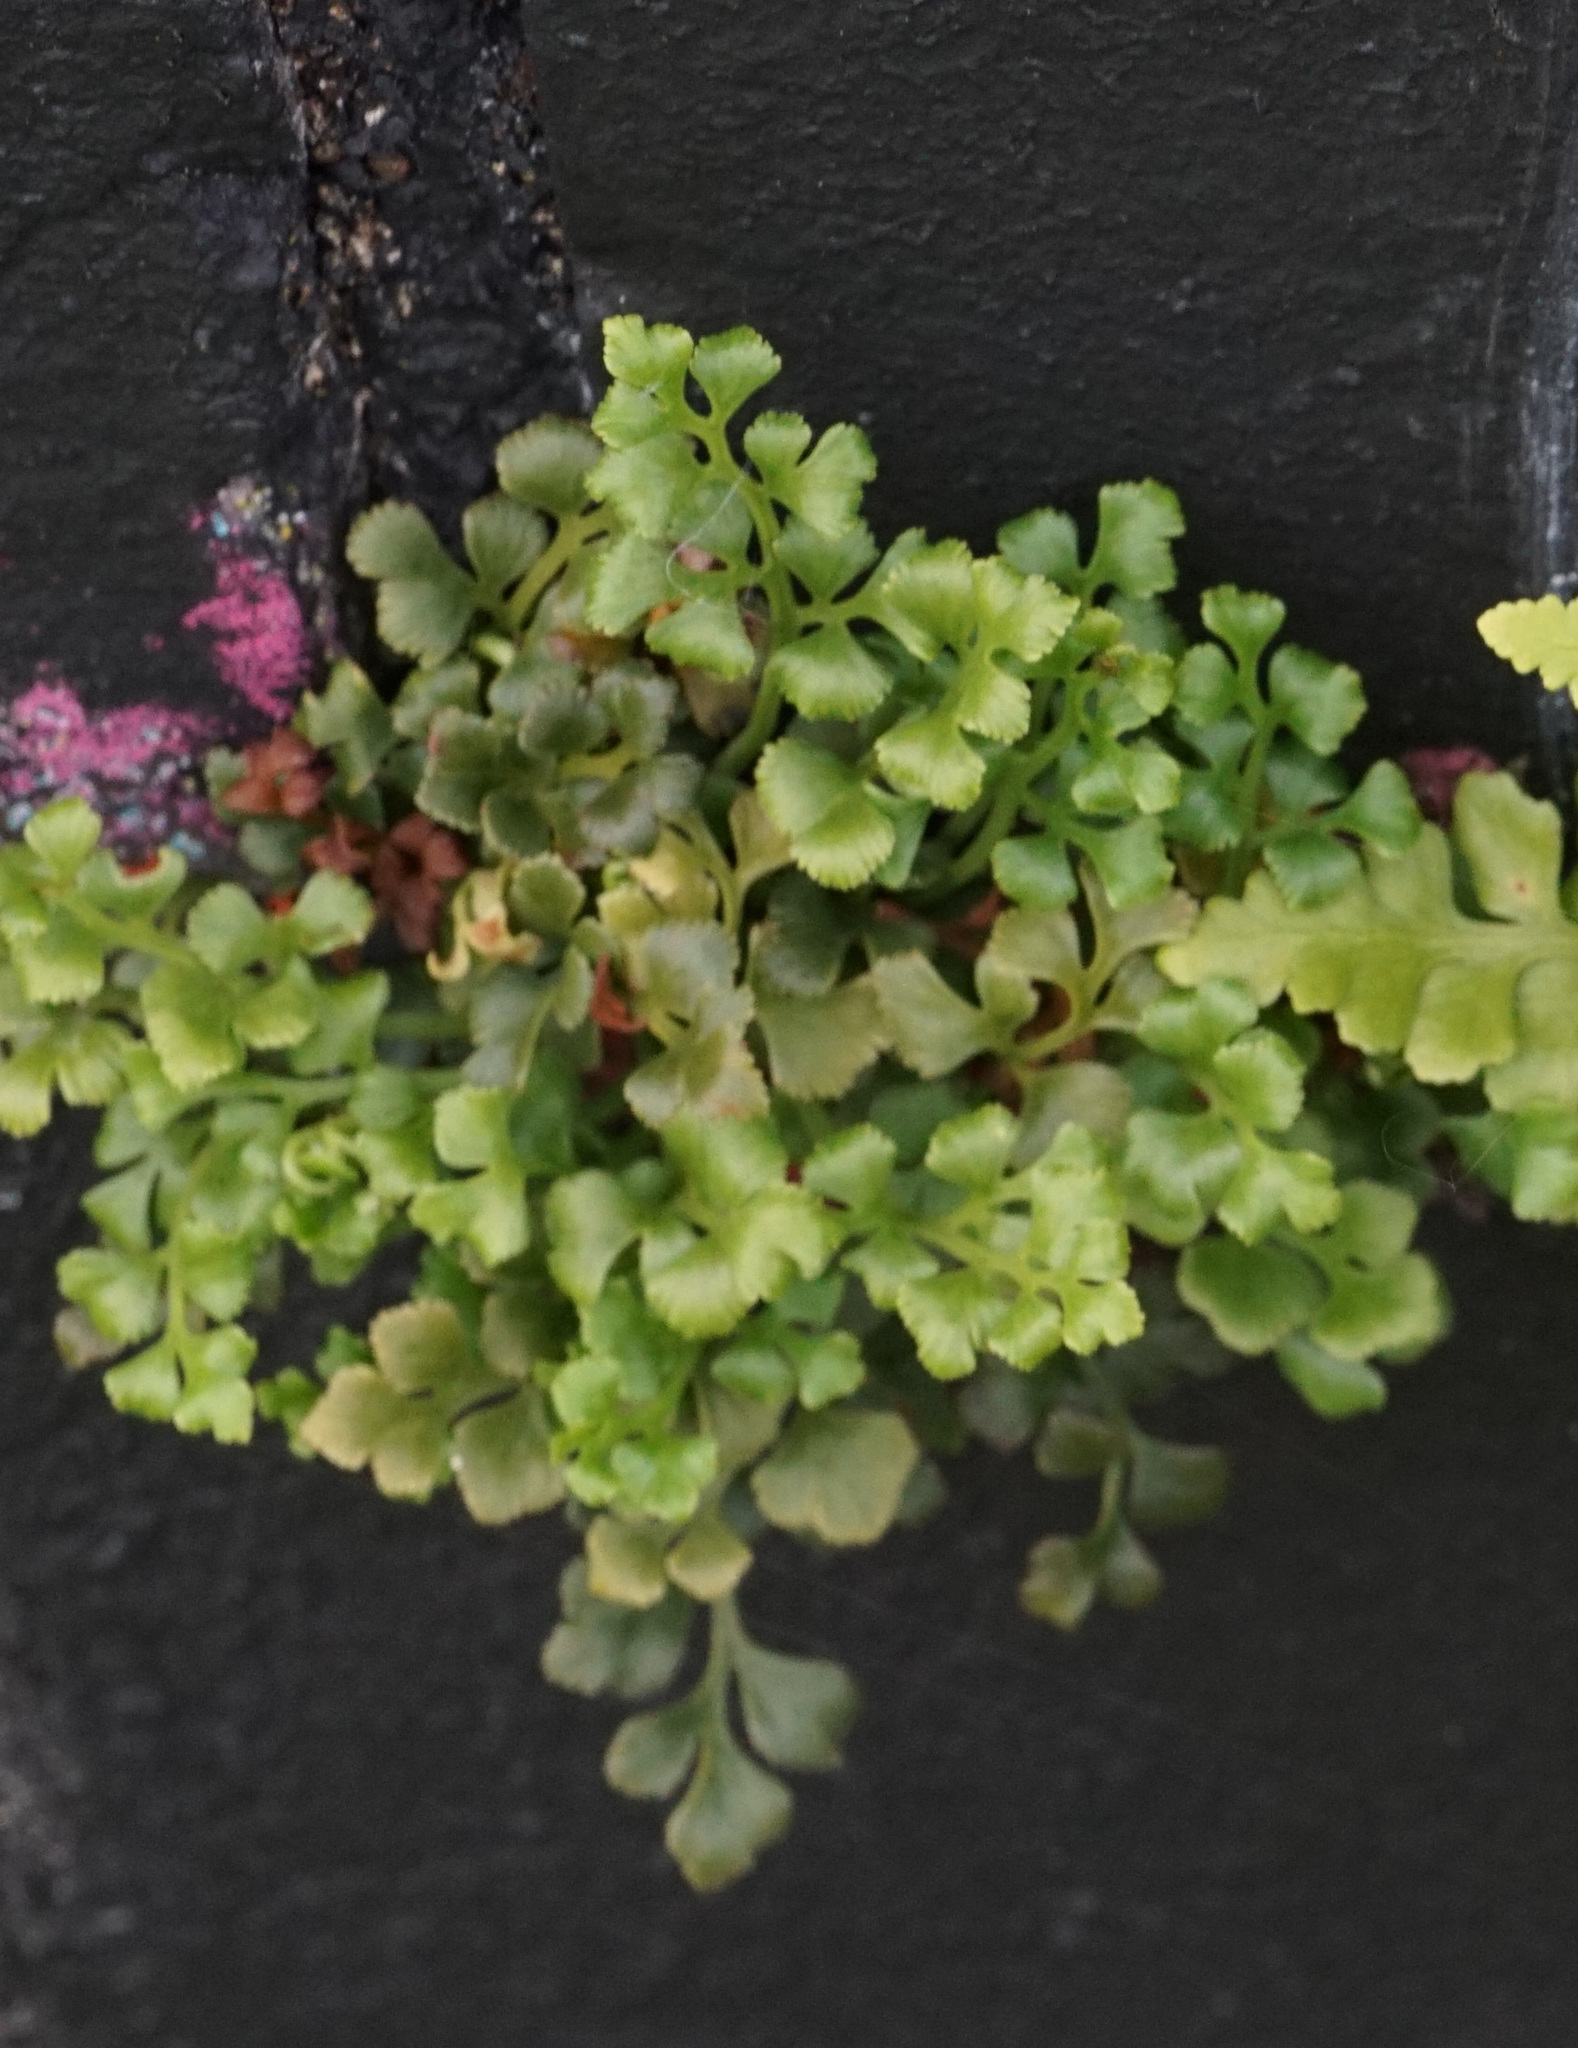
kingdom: Plantae
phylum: Tracheophyta
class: Polypodiopsida
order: Polypodiales
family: Aspleniaceae
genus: Asplenium
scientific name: Asplenium ruta-muraria
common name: Wall-rue
